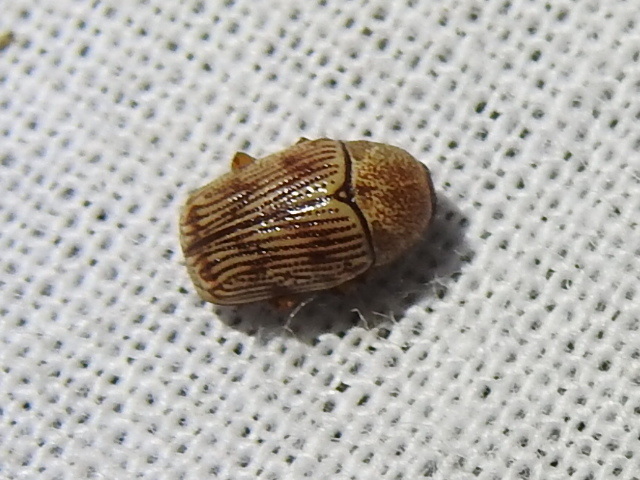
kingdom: Animalia
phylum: Arthropoda
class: Insecta
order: Coleoptera
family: Chrysomelidae
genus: Cryptocephalus
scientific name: Cryptocephalus implacidus
